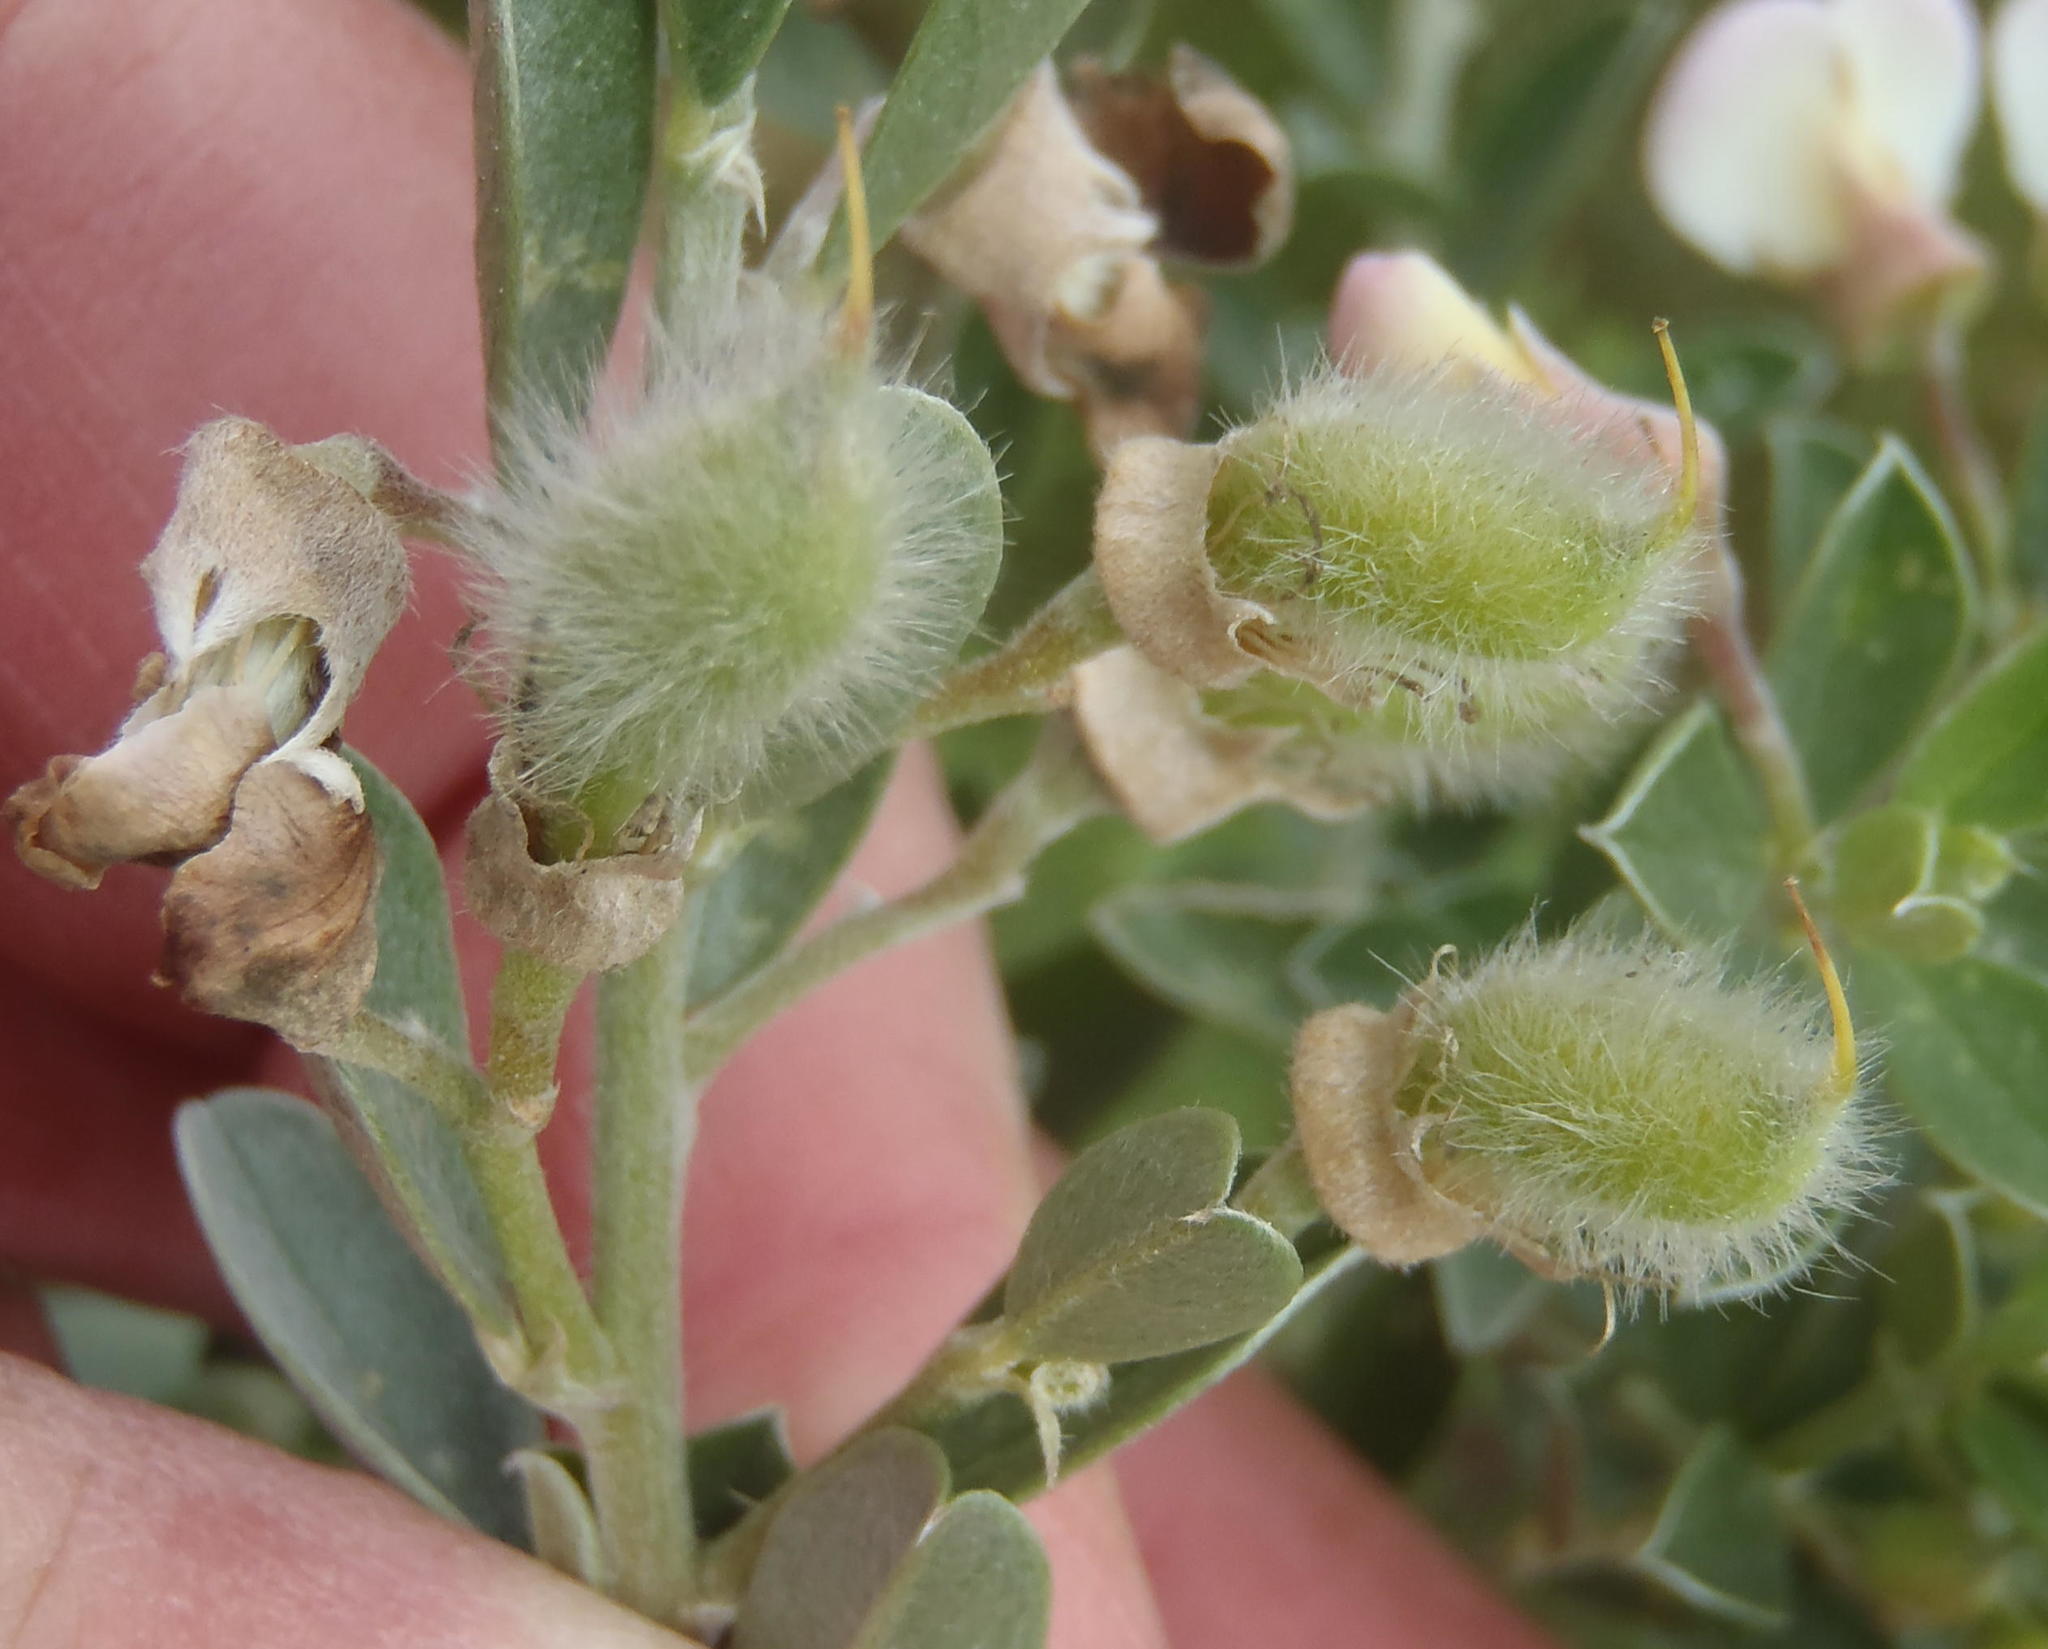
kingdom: Plantae
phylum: Tracheophyta
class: Magnoliopsida
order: Fabales
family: Fabaceae
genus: Podalyria
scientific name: Podalyria myrtillifolia
